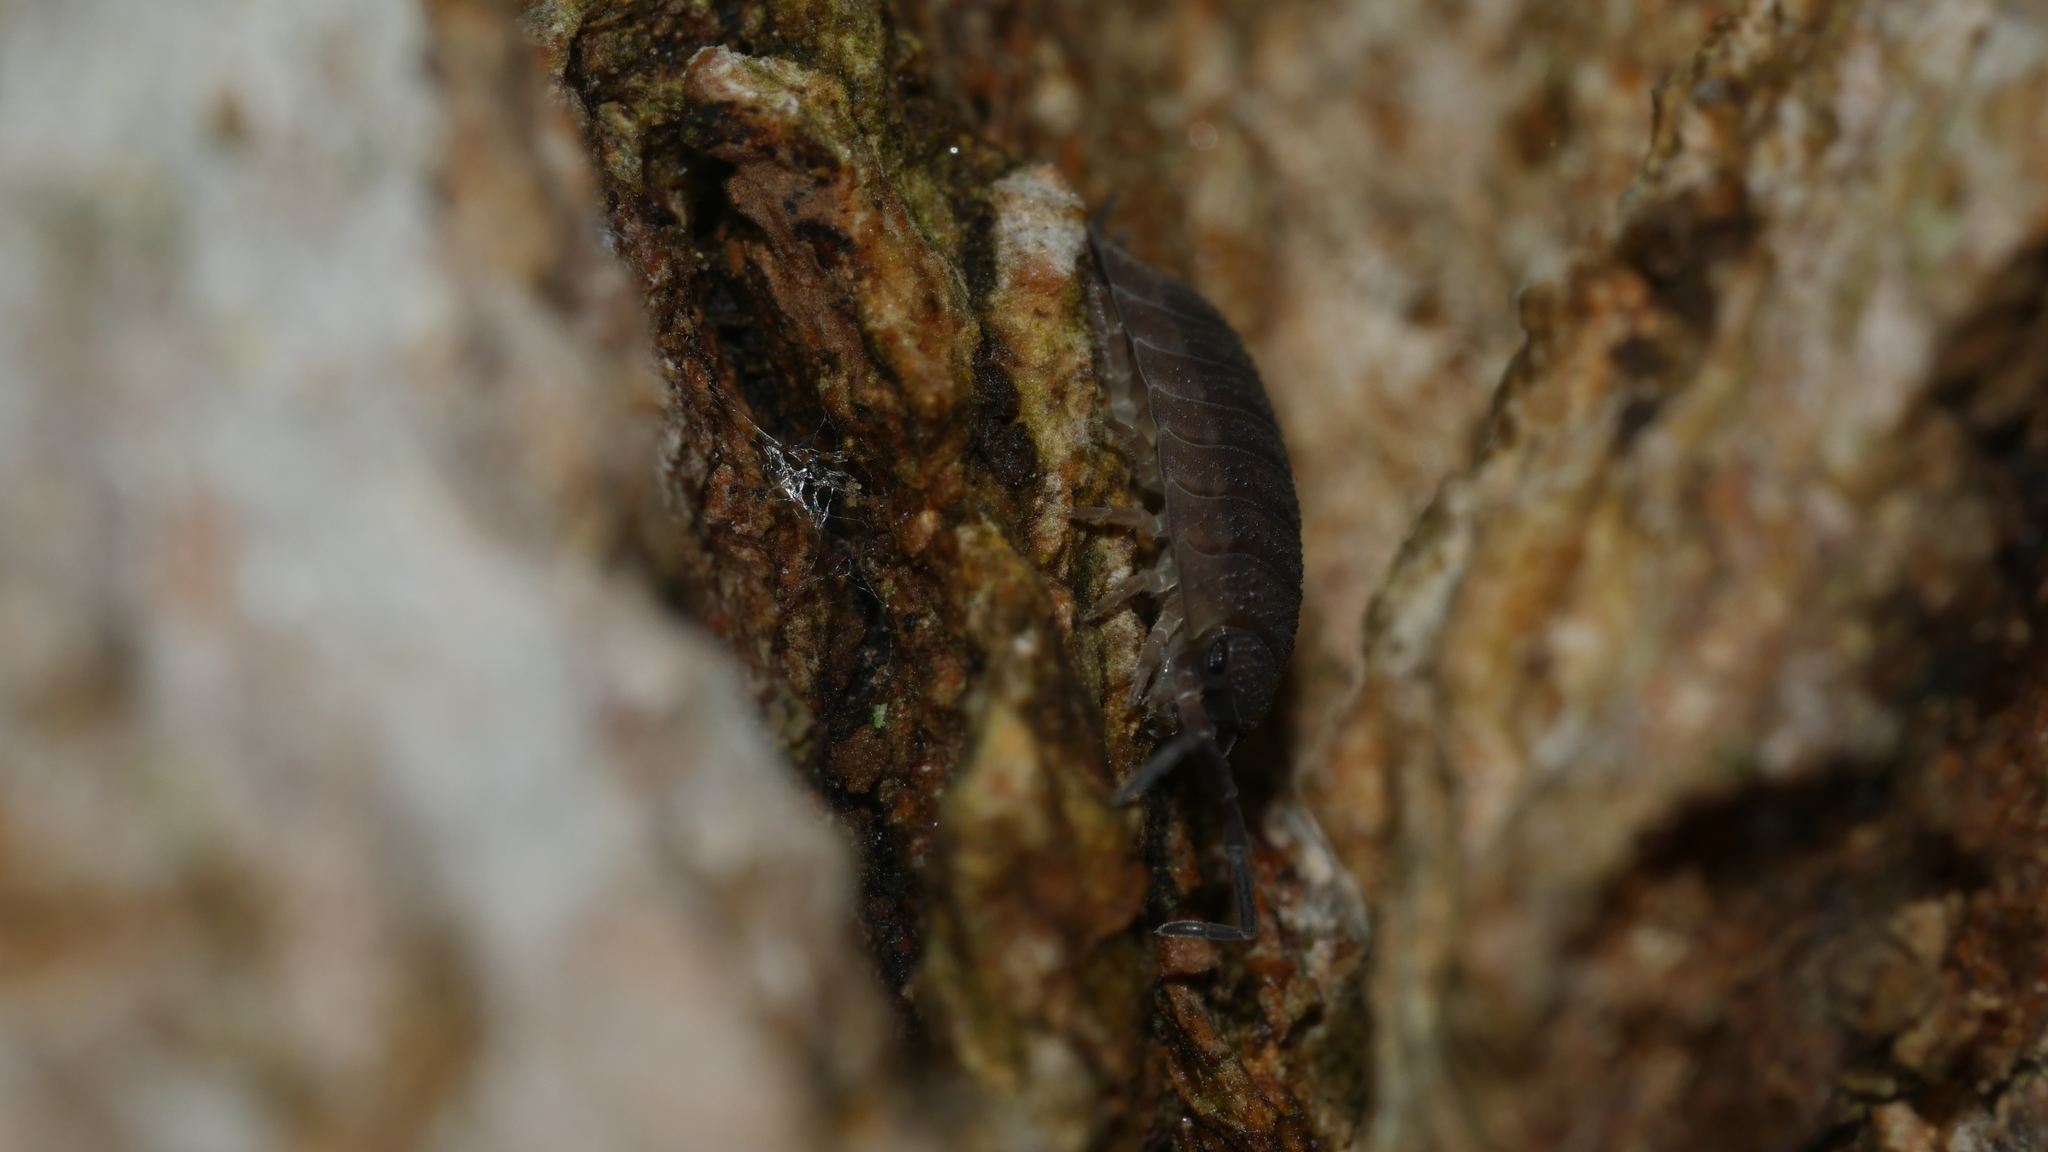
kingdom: Animalia
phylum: Arthropoda
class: Malacostraca
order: Isopoda
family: Porcellionidae
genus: Porcellio
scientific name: Porcellio scaber
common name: Common rough woodlouse
